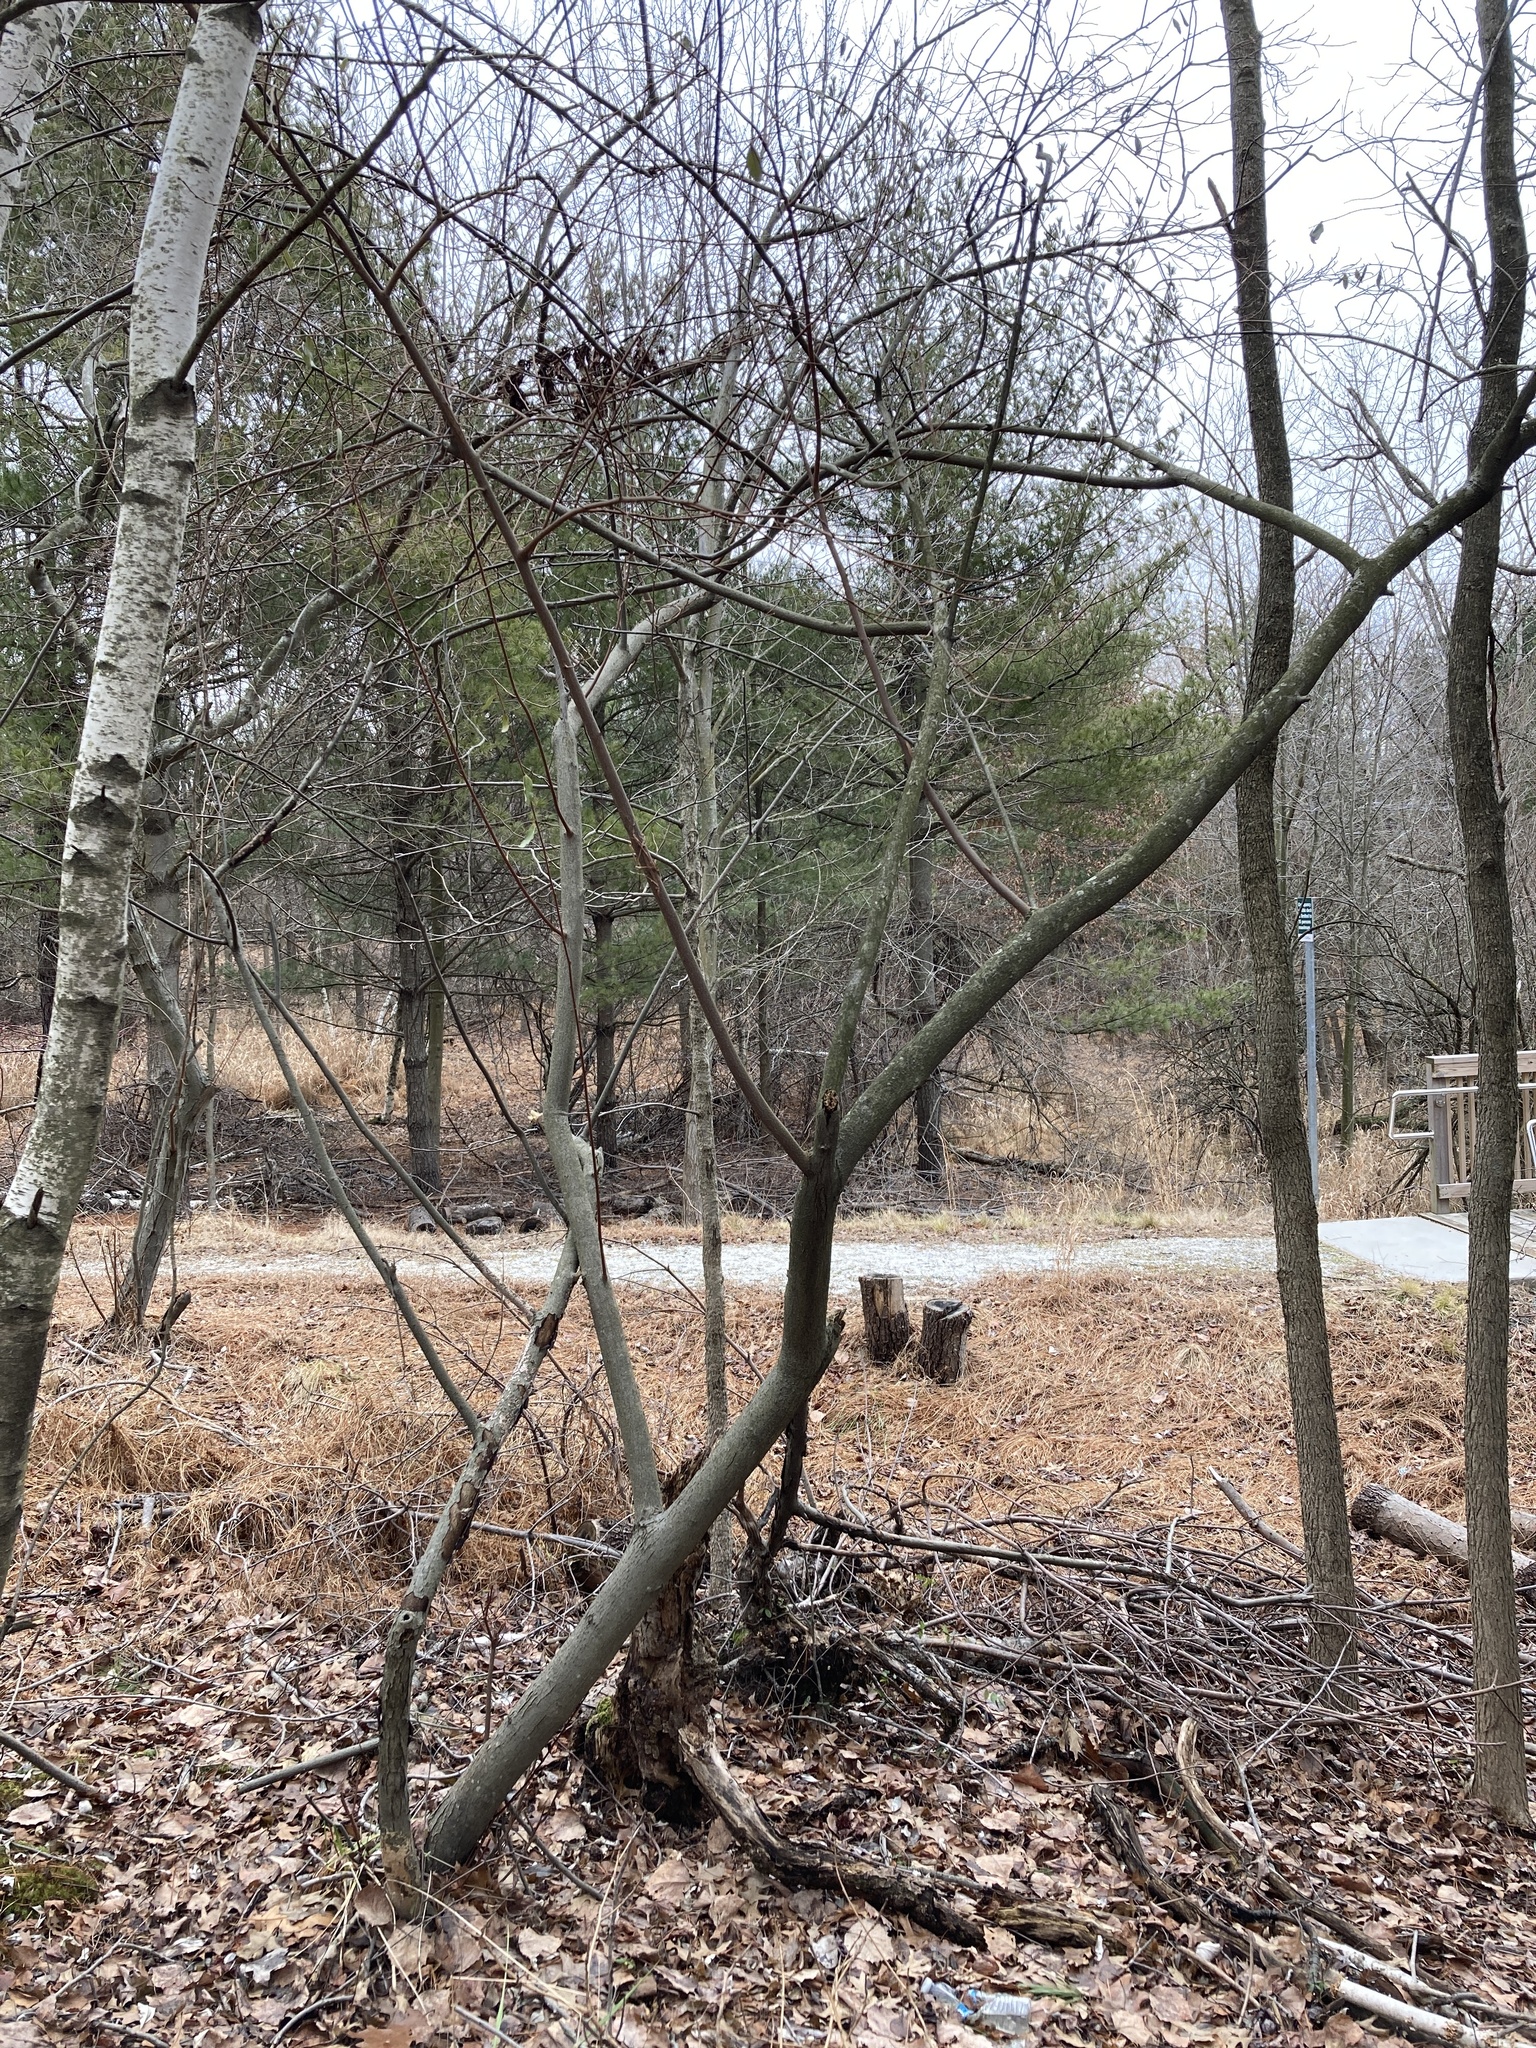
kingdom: Plantae
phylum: Tracheophyta
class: Magnoliopsida
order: Rosales
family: Elaeagnaceae
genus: Elaeagnus
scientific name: Elaeagnus umbellata
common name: Autumn olive
